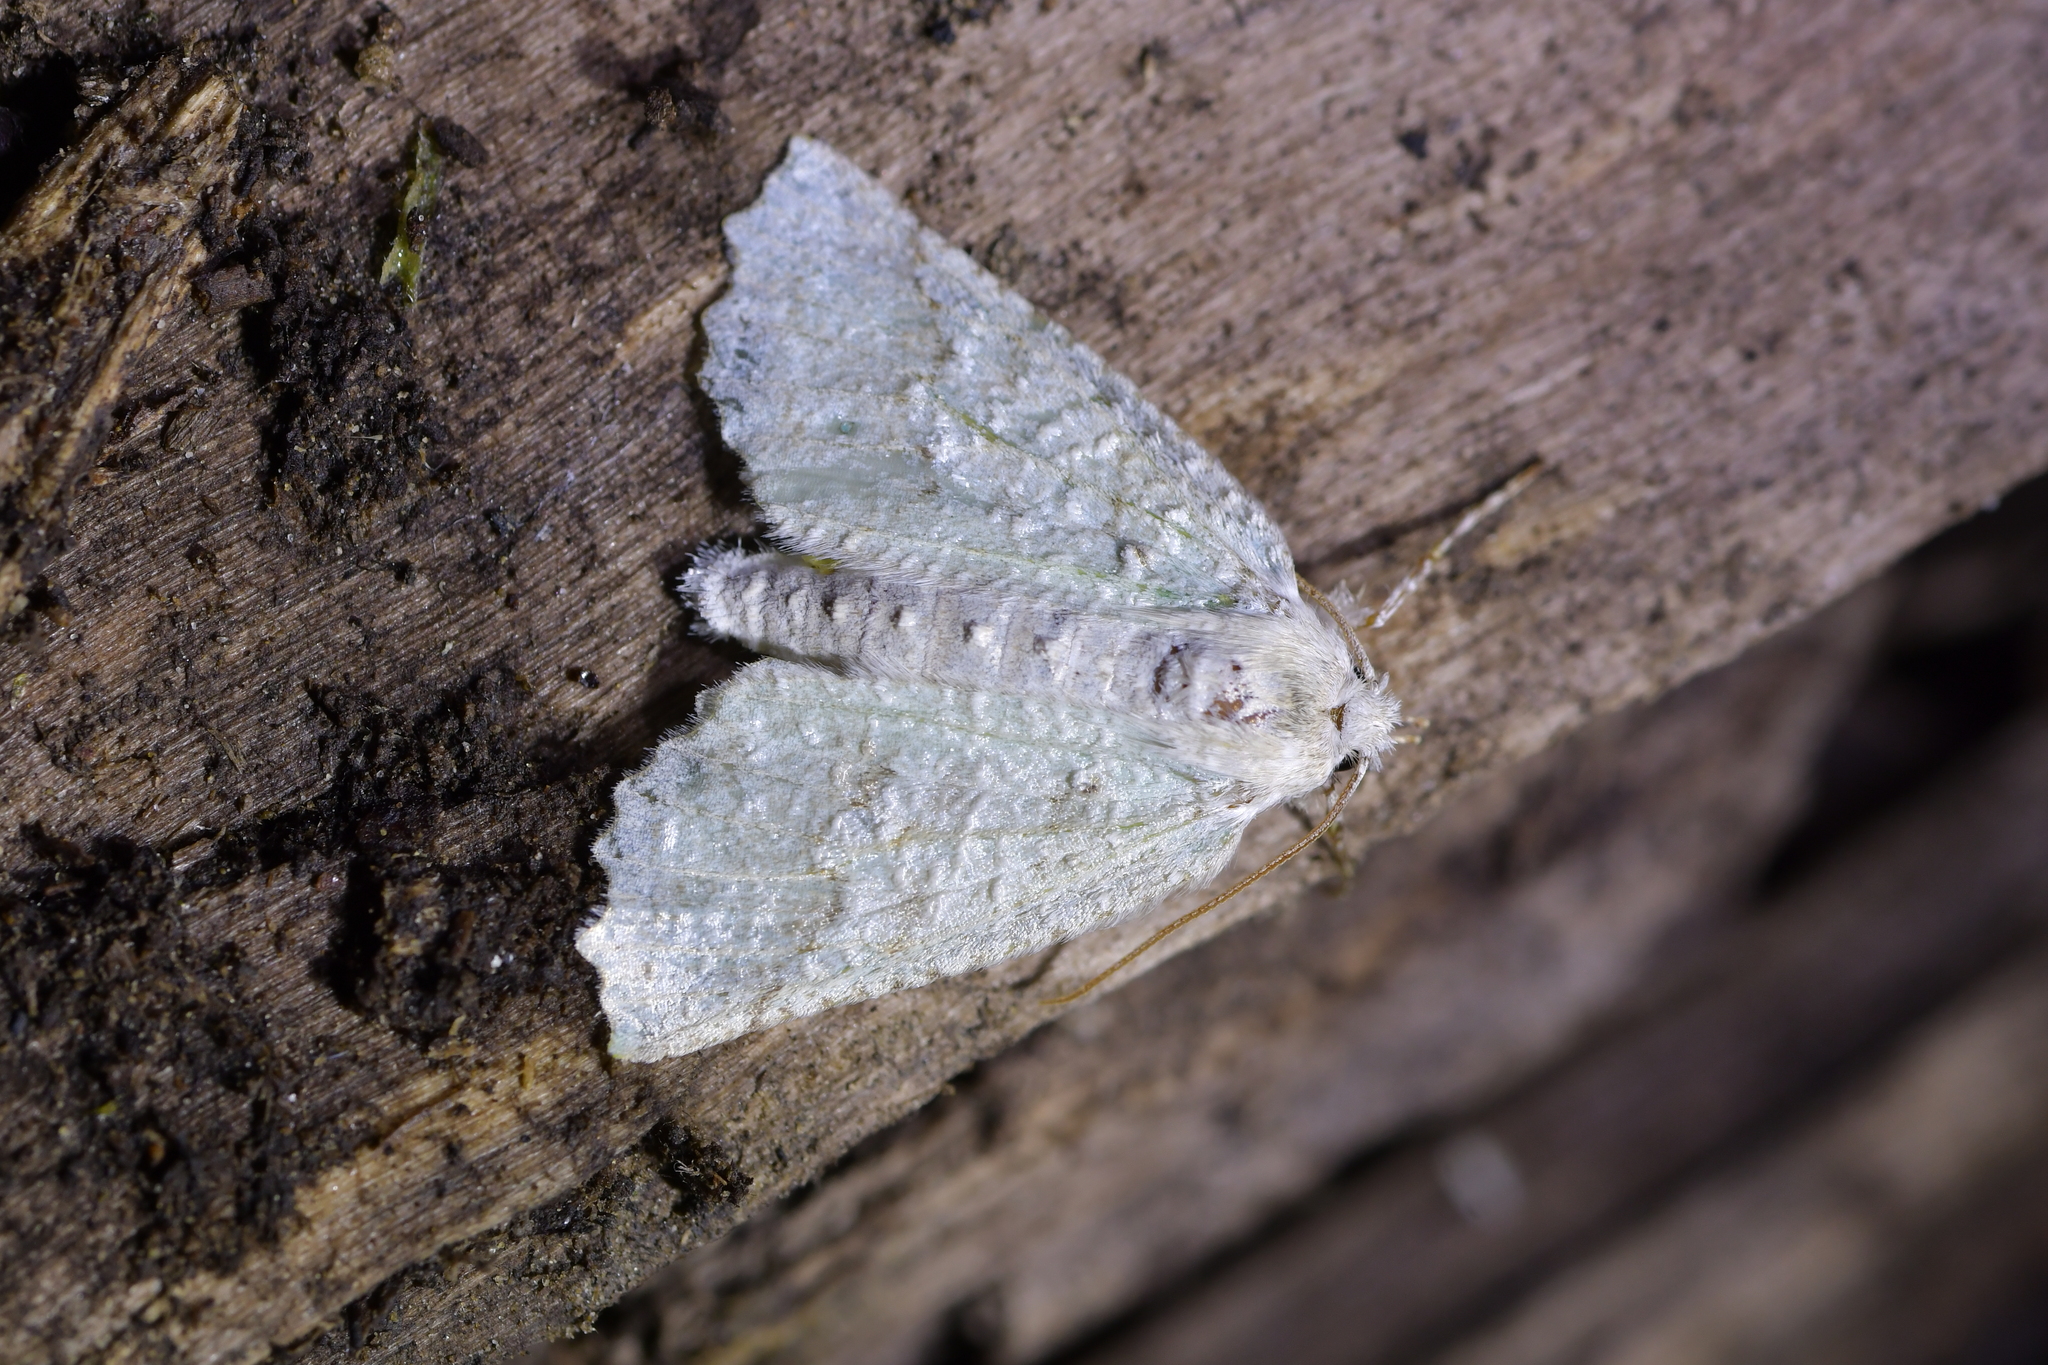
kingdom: Animalia
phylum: Arthropoda
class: Insecta
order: Lepidoptera
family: Geometridae
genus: Declana
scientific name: Declana floccosa
